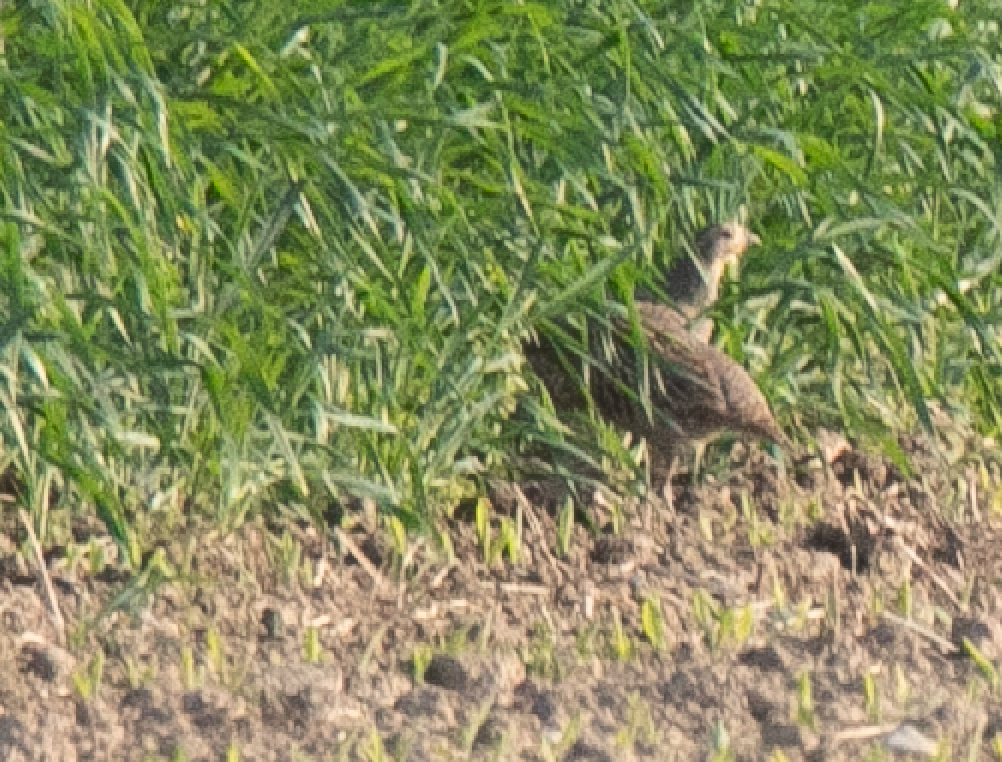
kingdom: Animalia
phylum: Chordata
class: Aves
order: Galliformes
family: Phasianidae
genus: Perdix
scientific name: Perdix perdix
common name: Grey partridge
